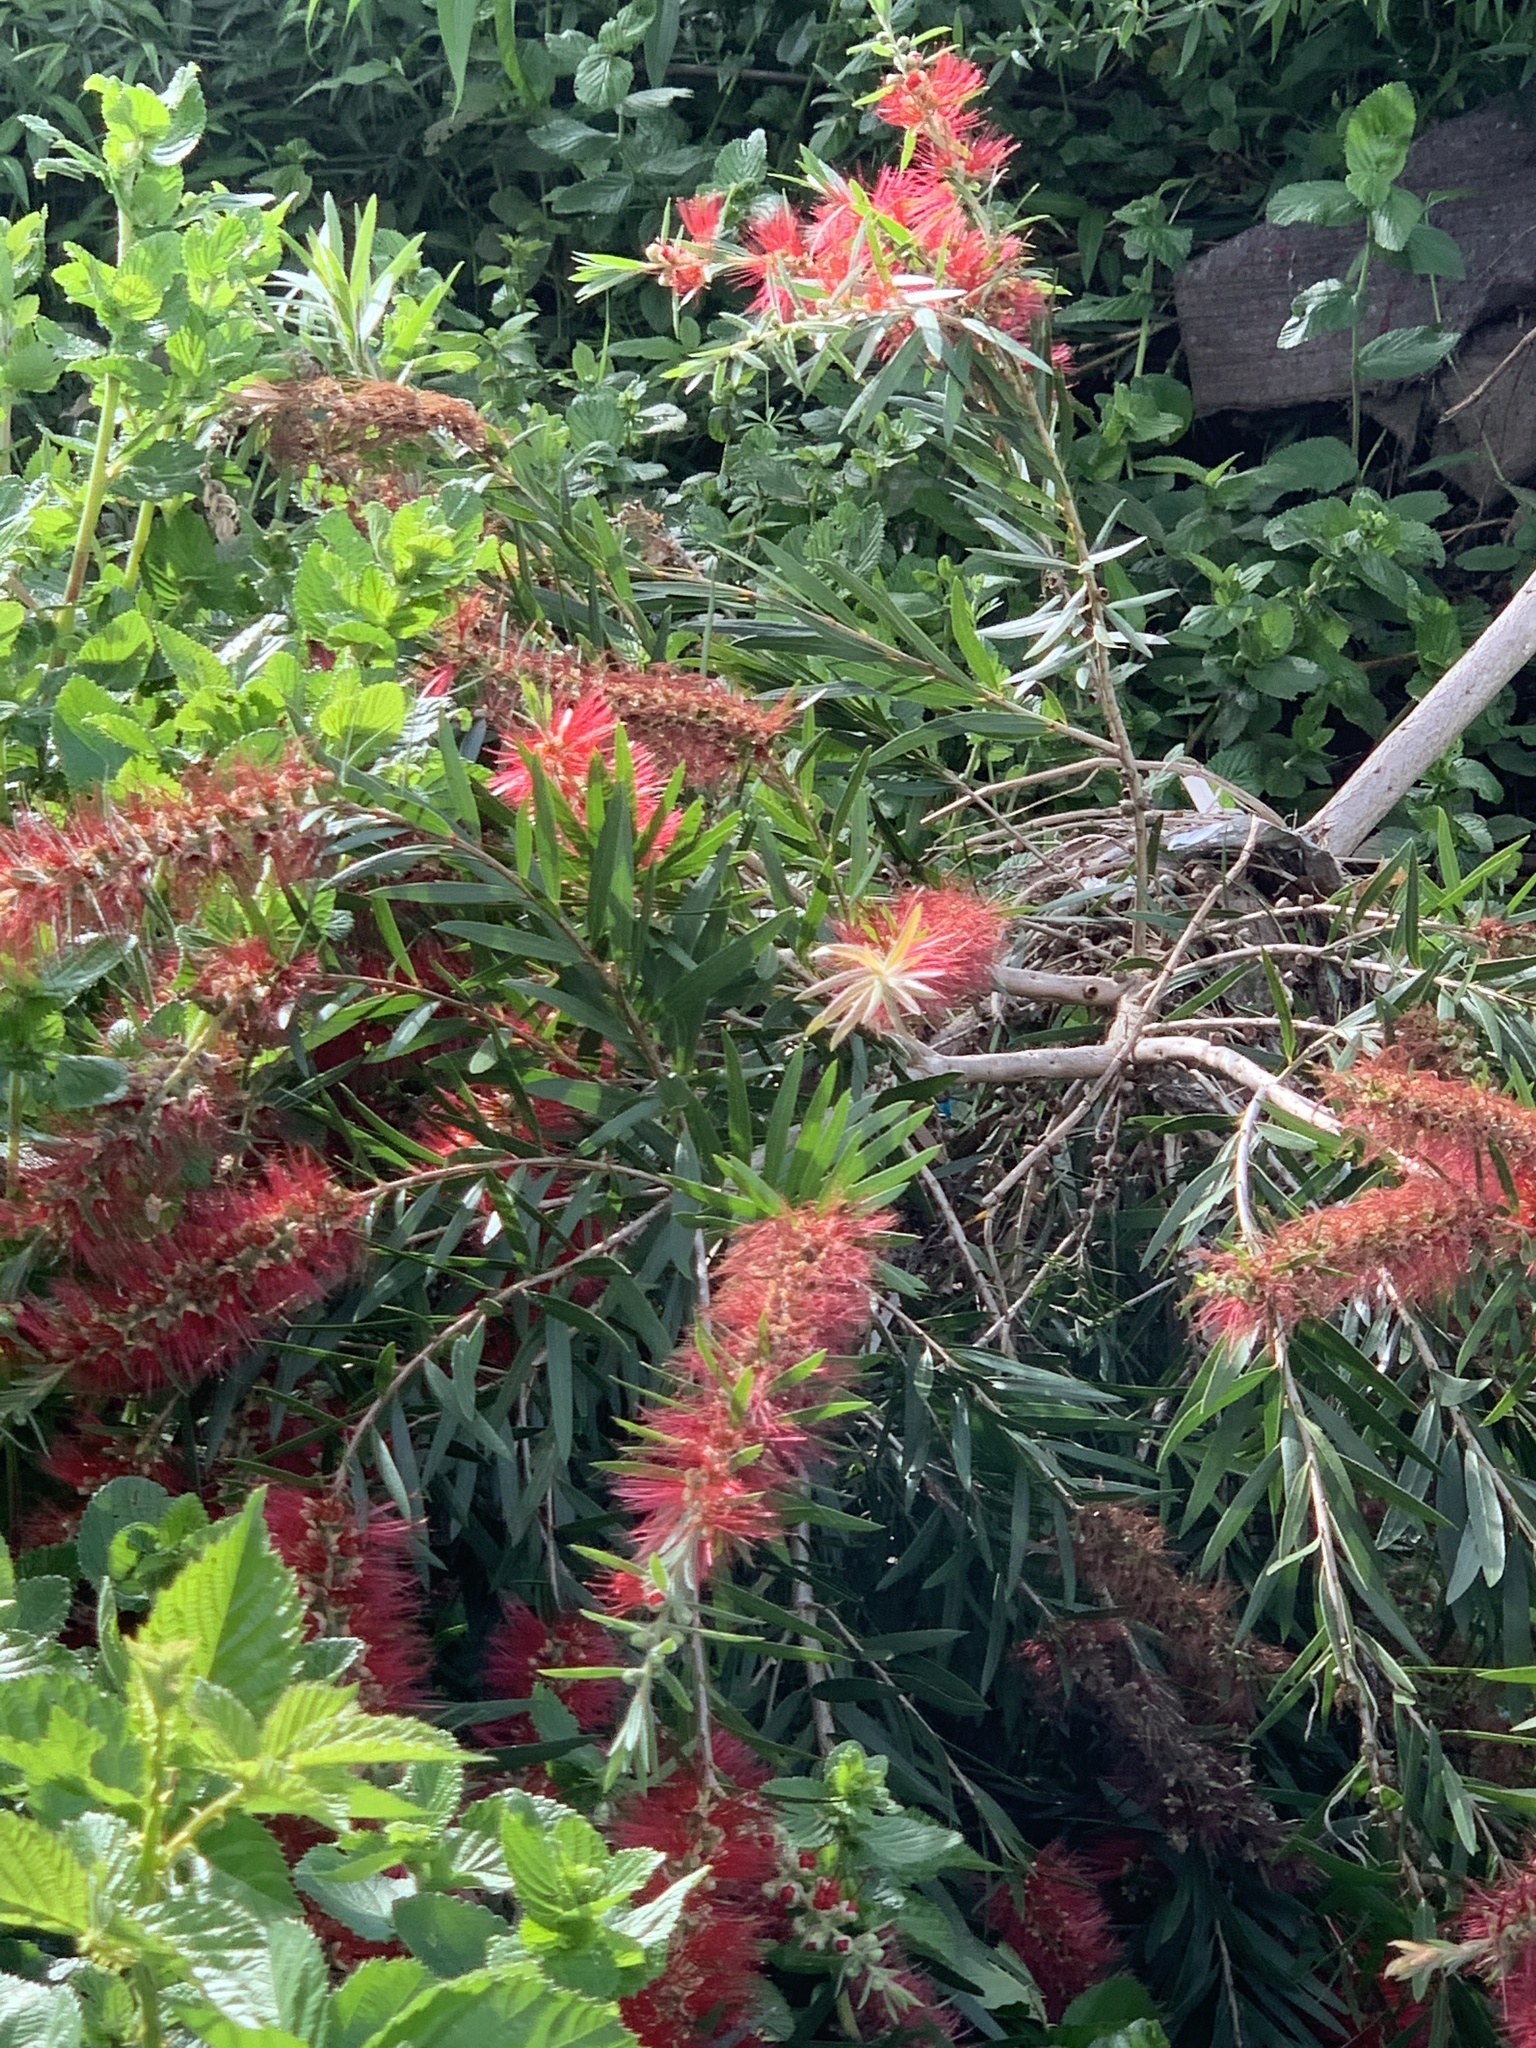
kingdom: Plantae
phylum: Tracheophyta
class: Magnoliopsida
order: Myrtales
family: Myrtaceae
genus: Callistemon
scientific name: Callistemon viminalis
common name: Drooping bottlebrush
